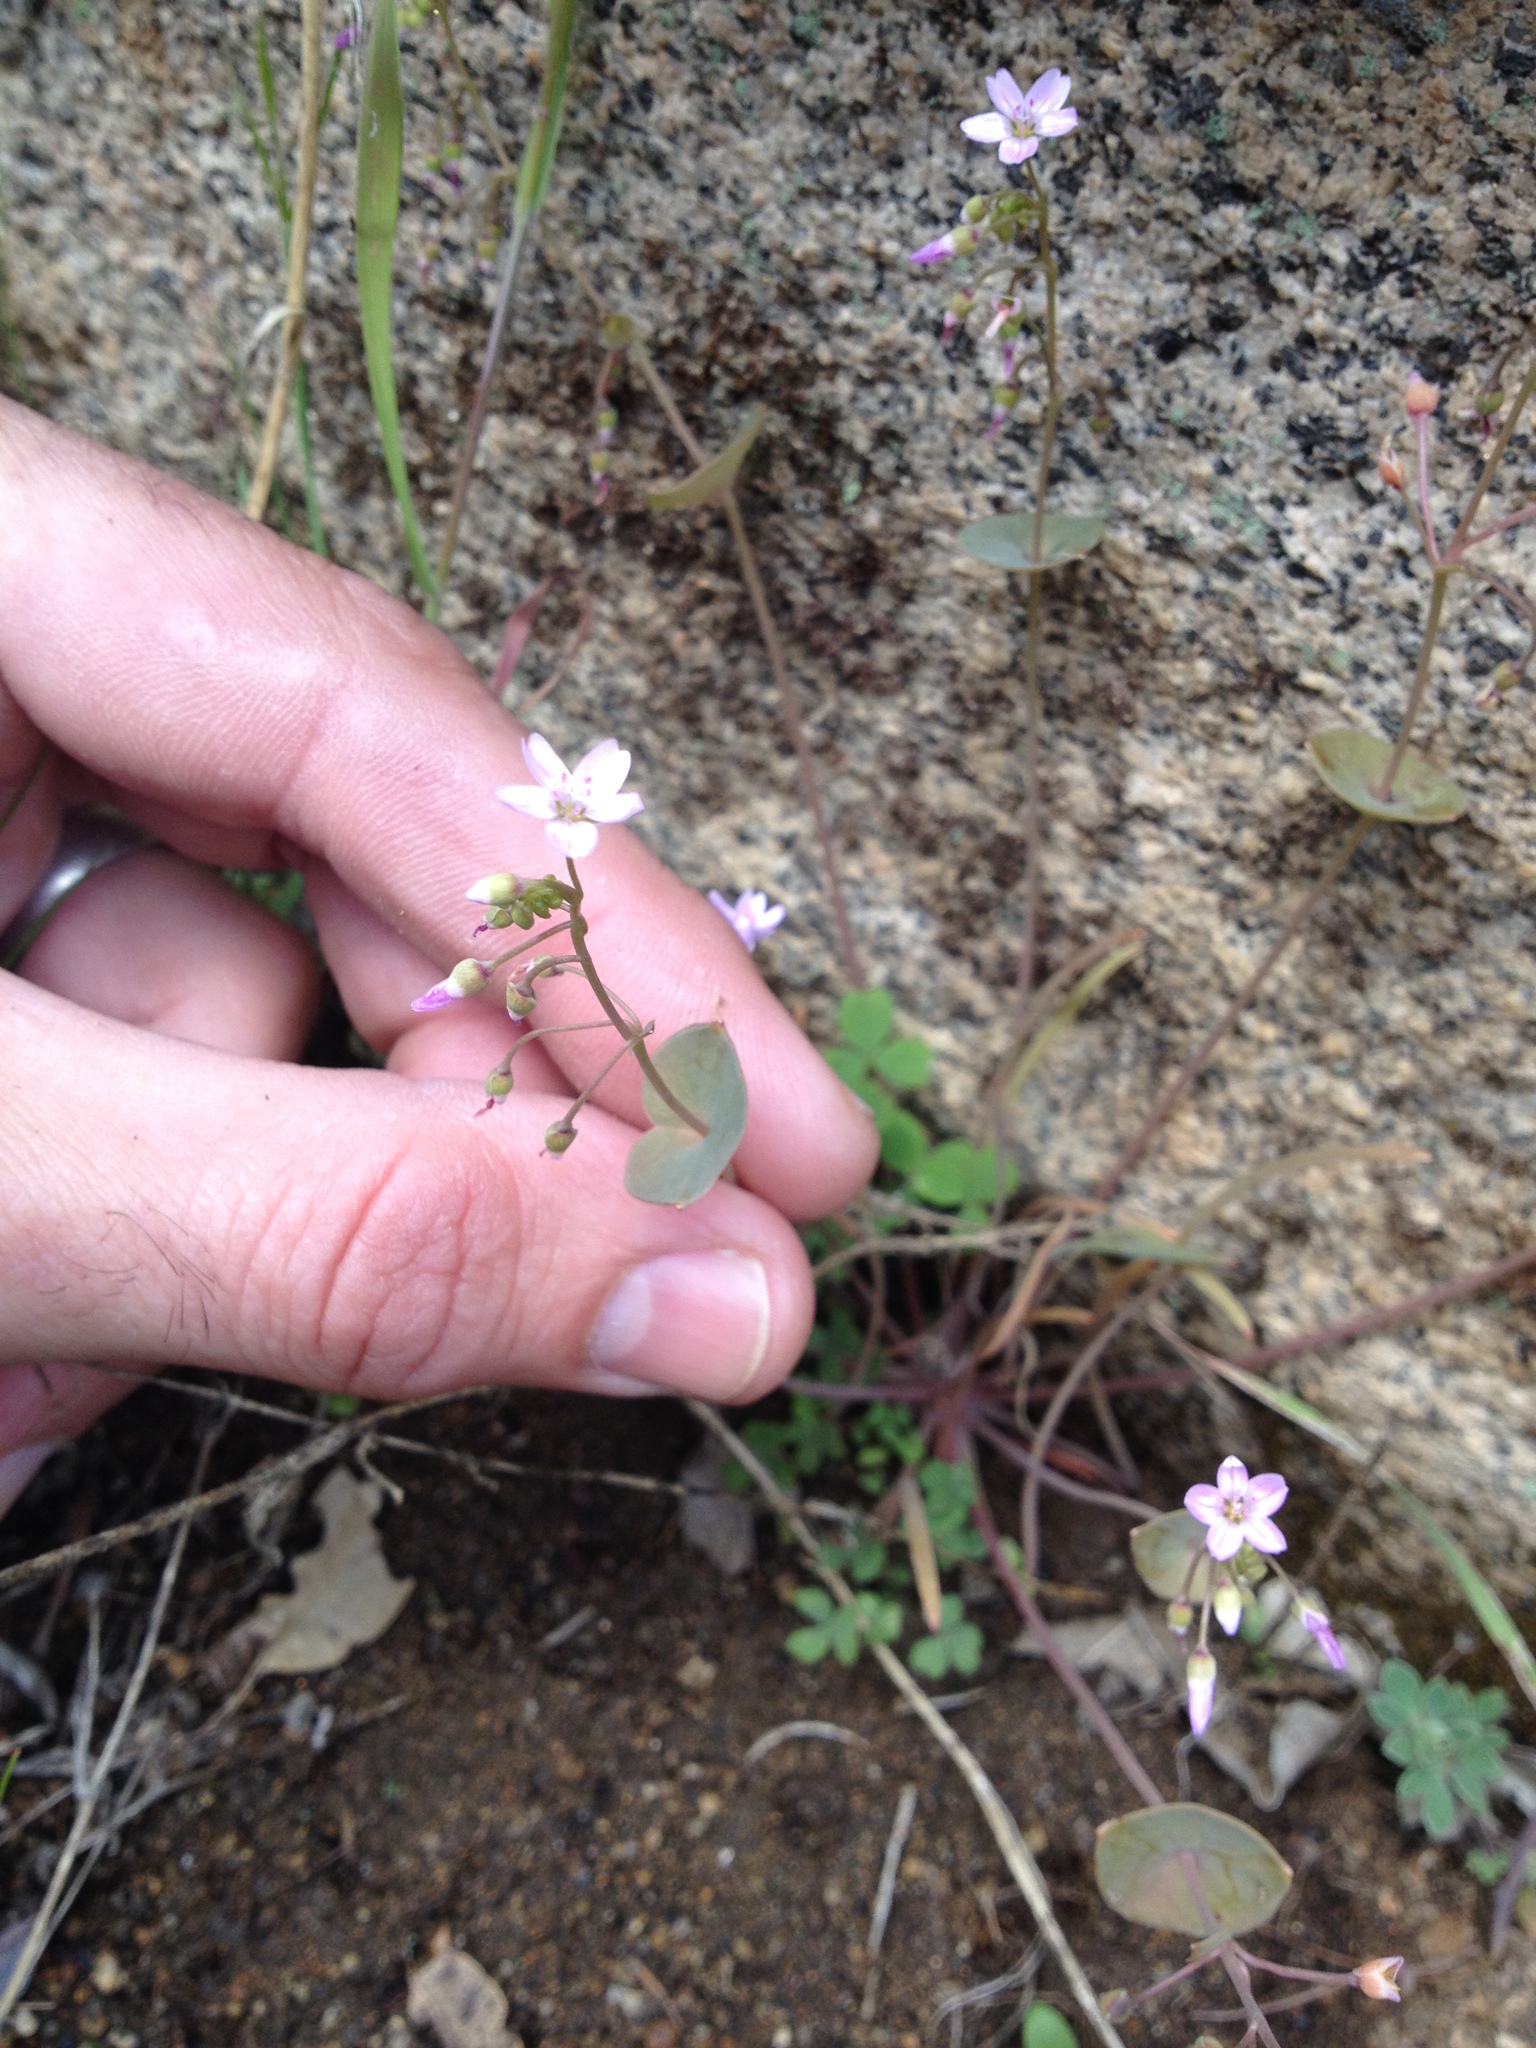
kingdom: Plantae
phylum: Tracheophyta
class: Magnoliopsida
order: Caryophyllales
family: Montiaceae
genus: Claytonia
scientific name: Claytonia perfoliata
